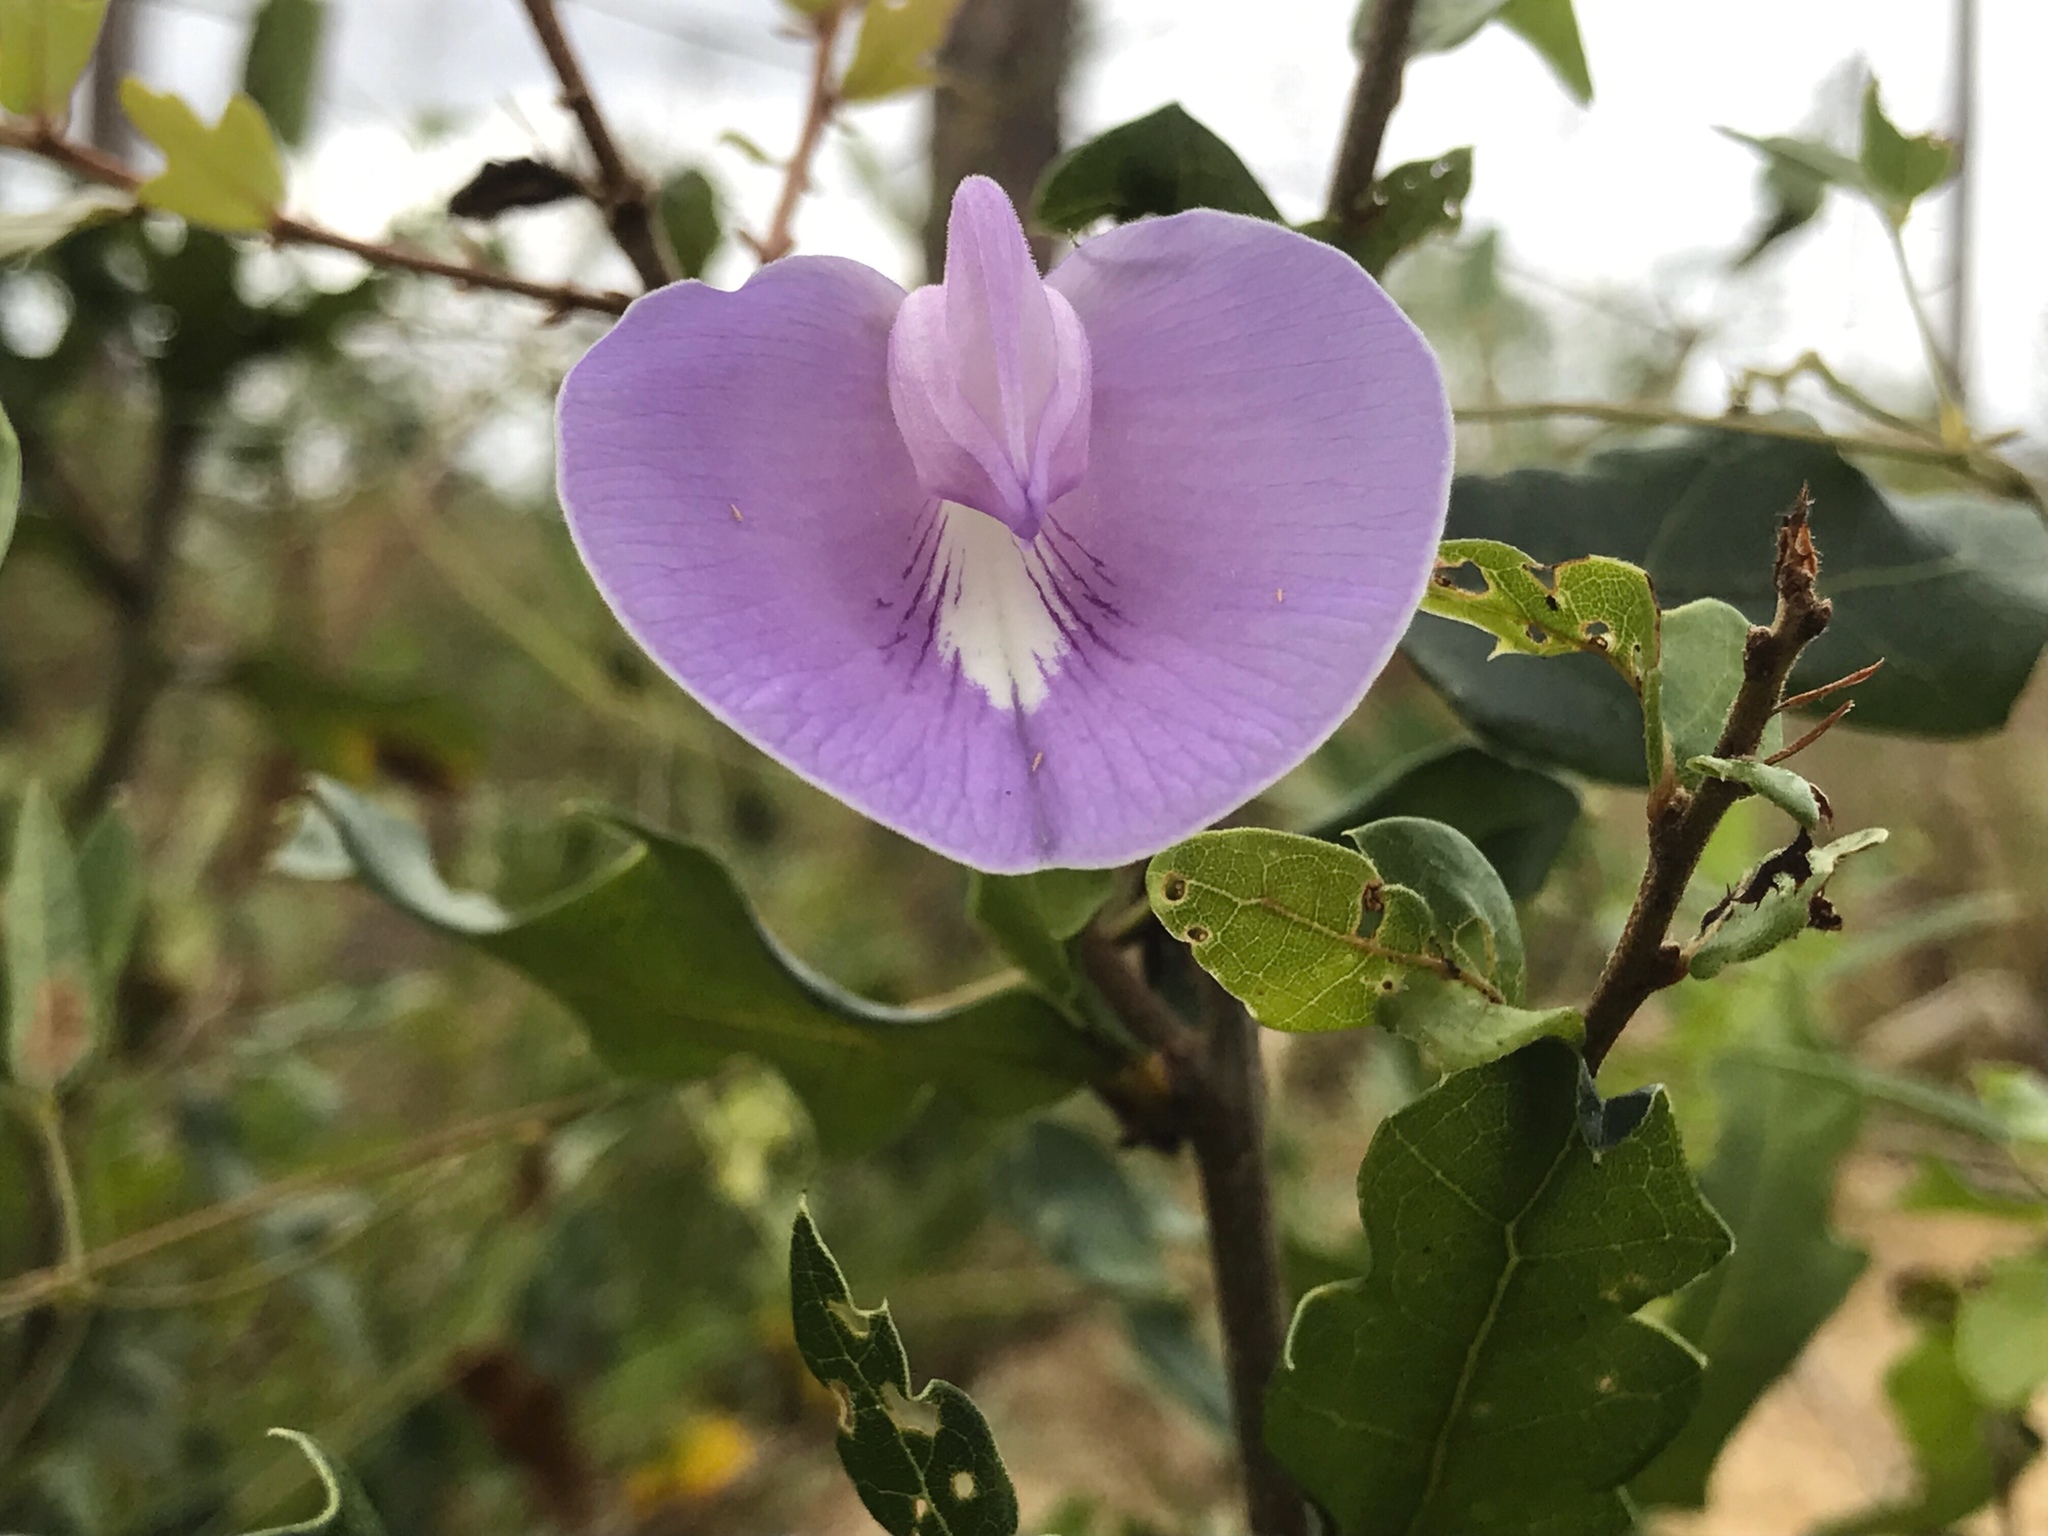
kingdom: Plantae
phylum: Tracheophyta
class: Magnoliopsida
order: Fabales
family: Fabaceae
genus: Centrosema
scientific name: Centrosema virginianum
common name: Butterfly-pea
